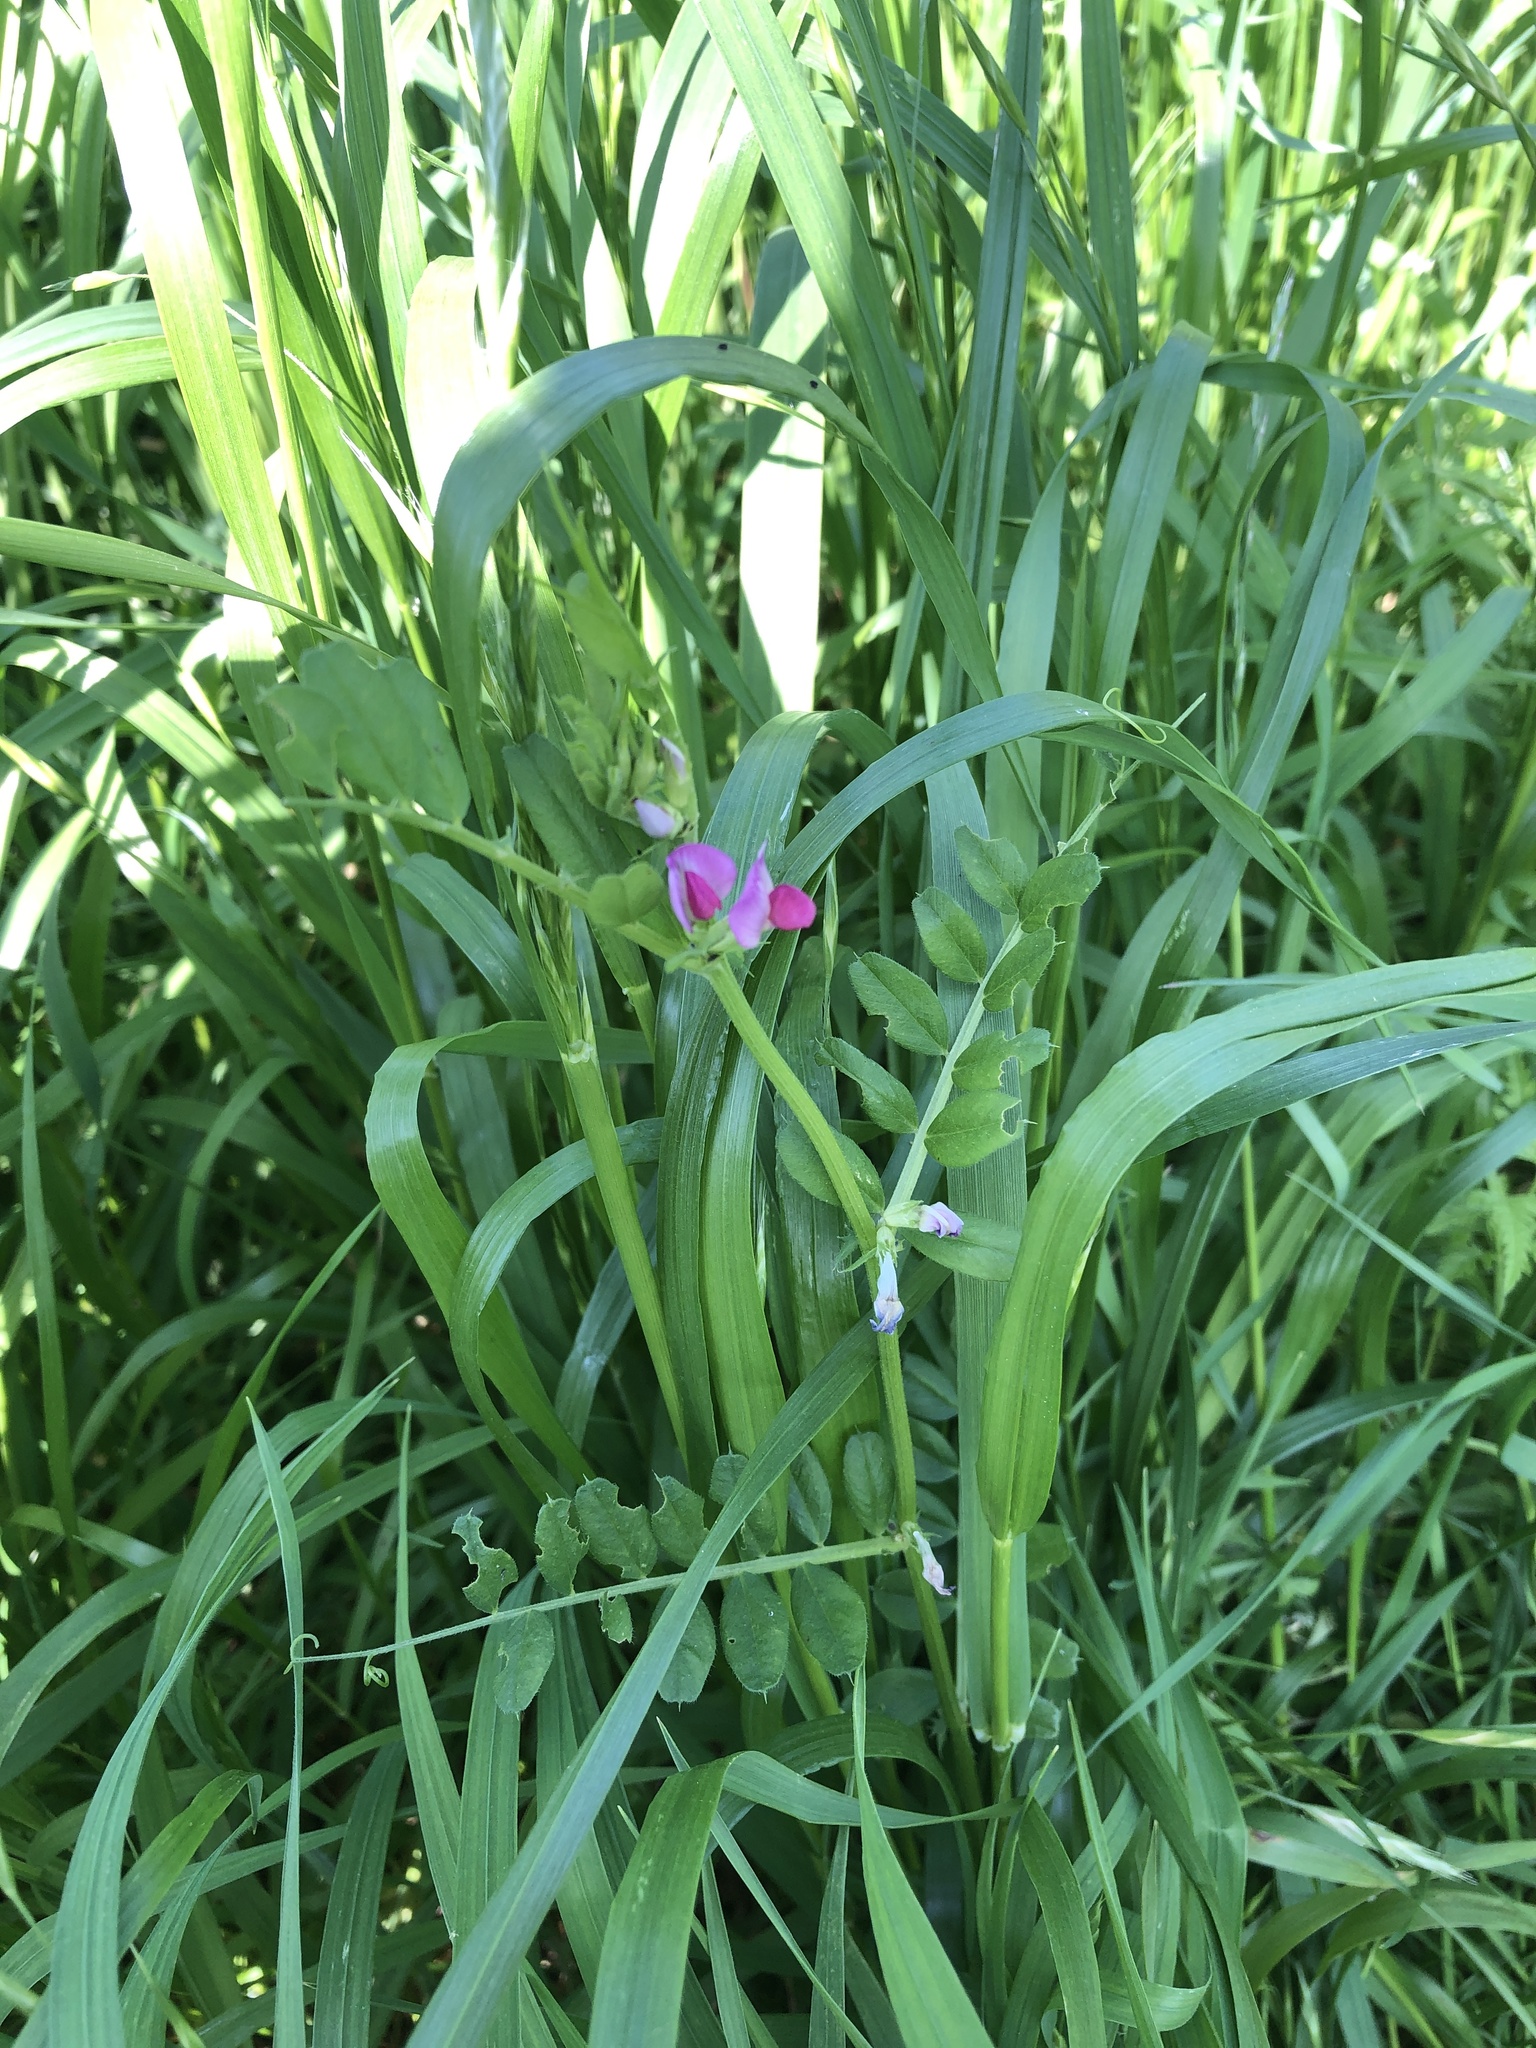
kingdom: Plantae
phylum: Tracheophyta
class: Magnoliopsida
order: Fabales
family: Fabaceae
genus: Vicia
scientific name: Vicia sativa
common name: Garden vetch
